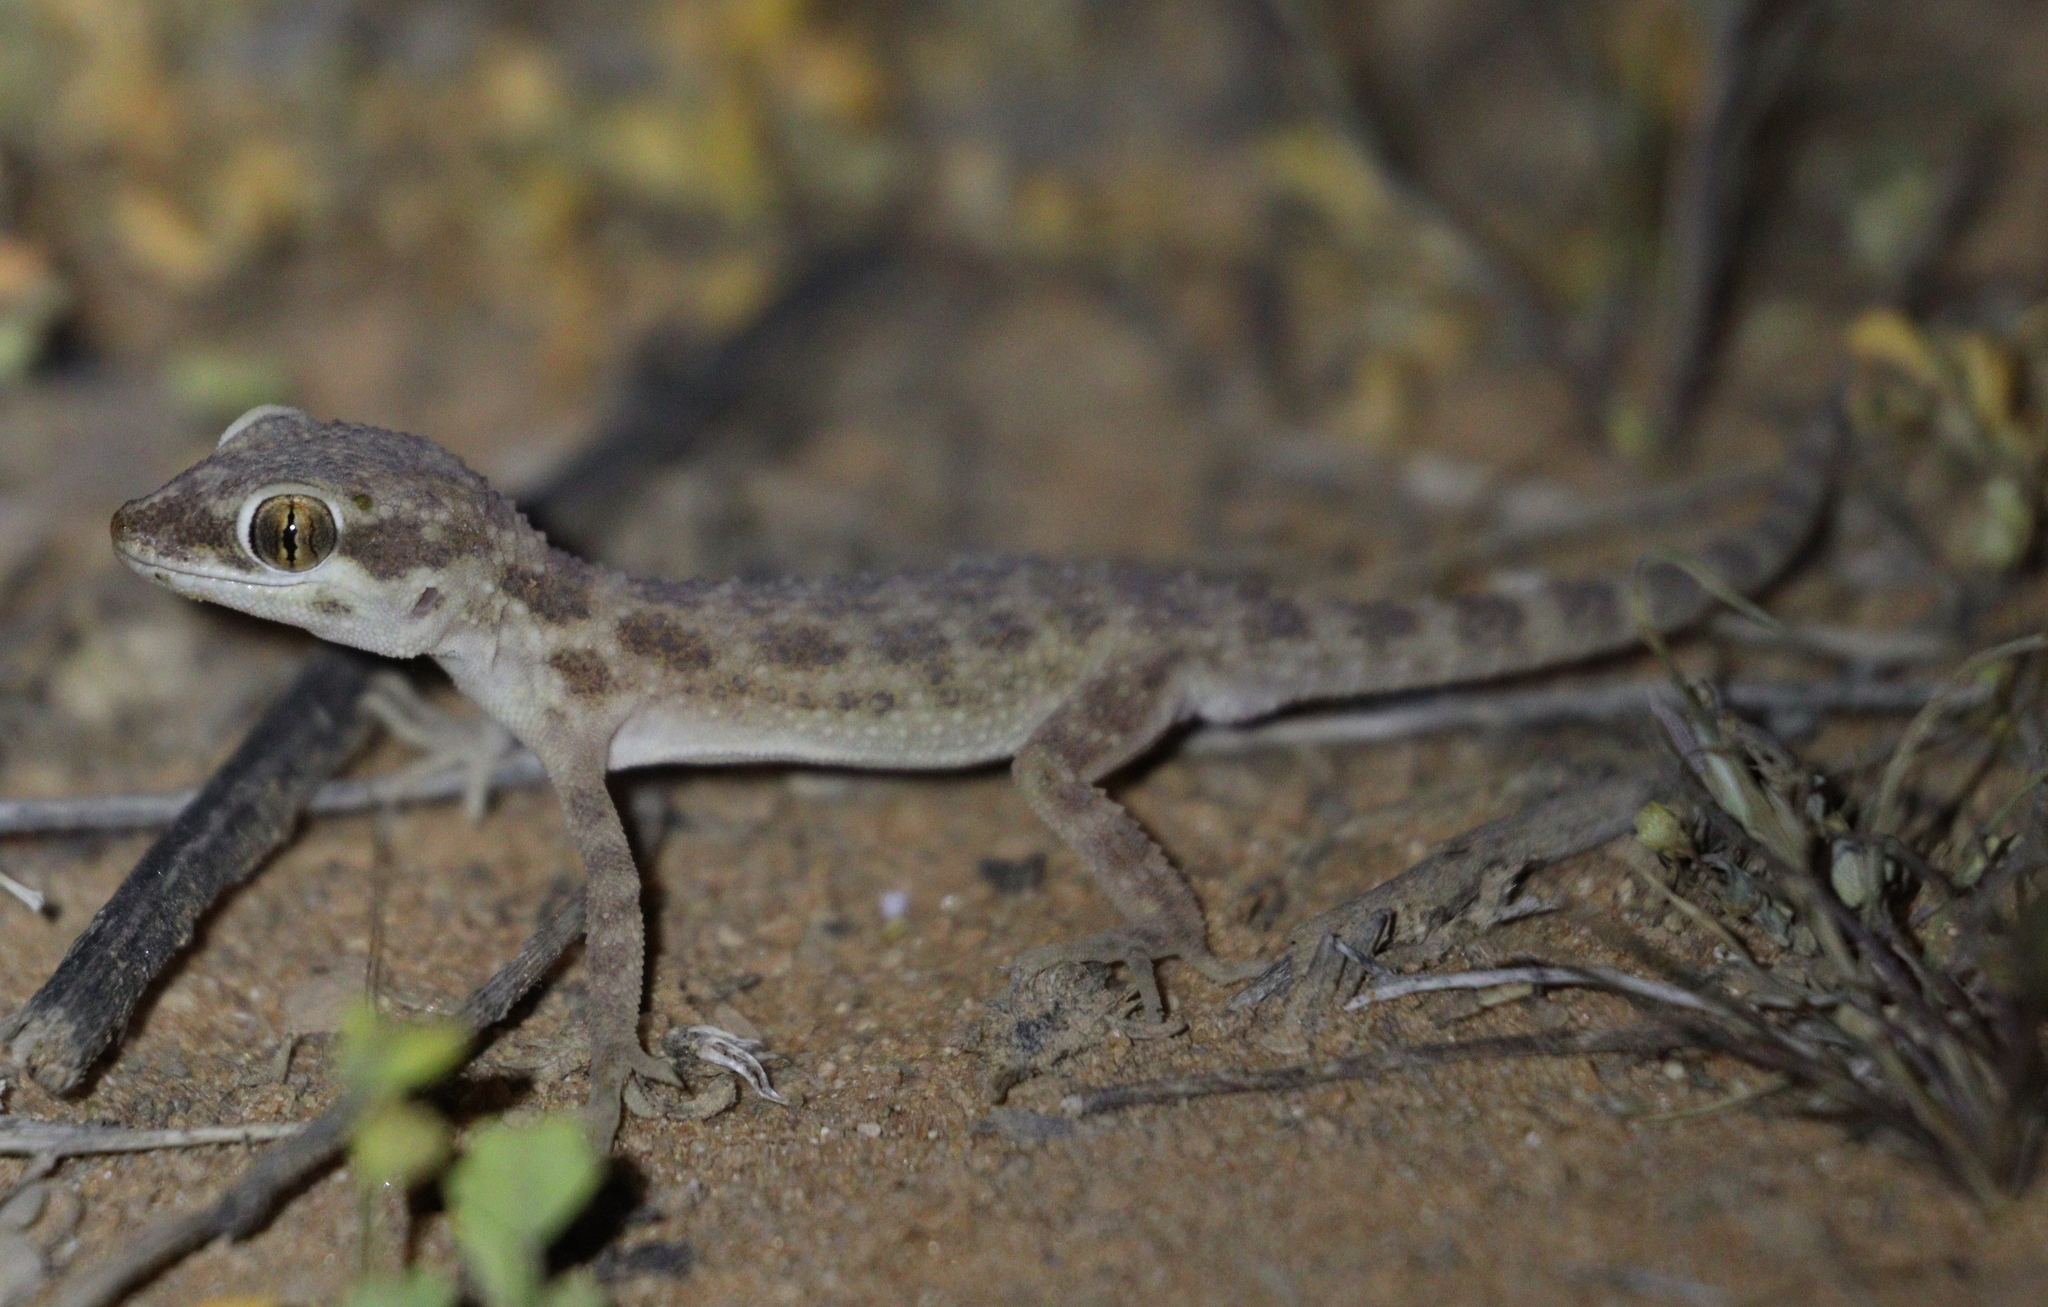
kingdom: Animalia
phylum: Chordata
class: Squamata
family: Gekkonidae
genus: Bunopus
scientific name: Bunopus tuberculatus
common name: Southern tuberculated gecko
